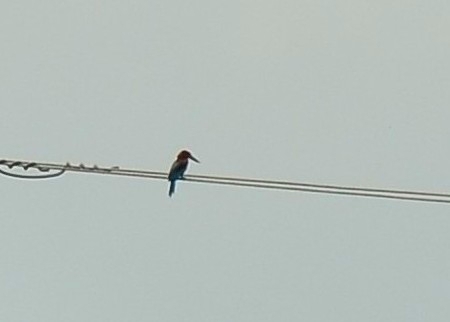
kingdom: Animalia
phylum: Chordata
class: Aves
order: Coraciiformes
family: Alcedinidae
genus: Halcyon
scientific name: Halcyon smyrnensis
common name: White-throated kingfisher
